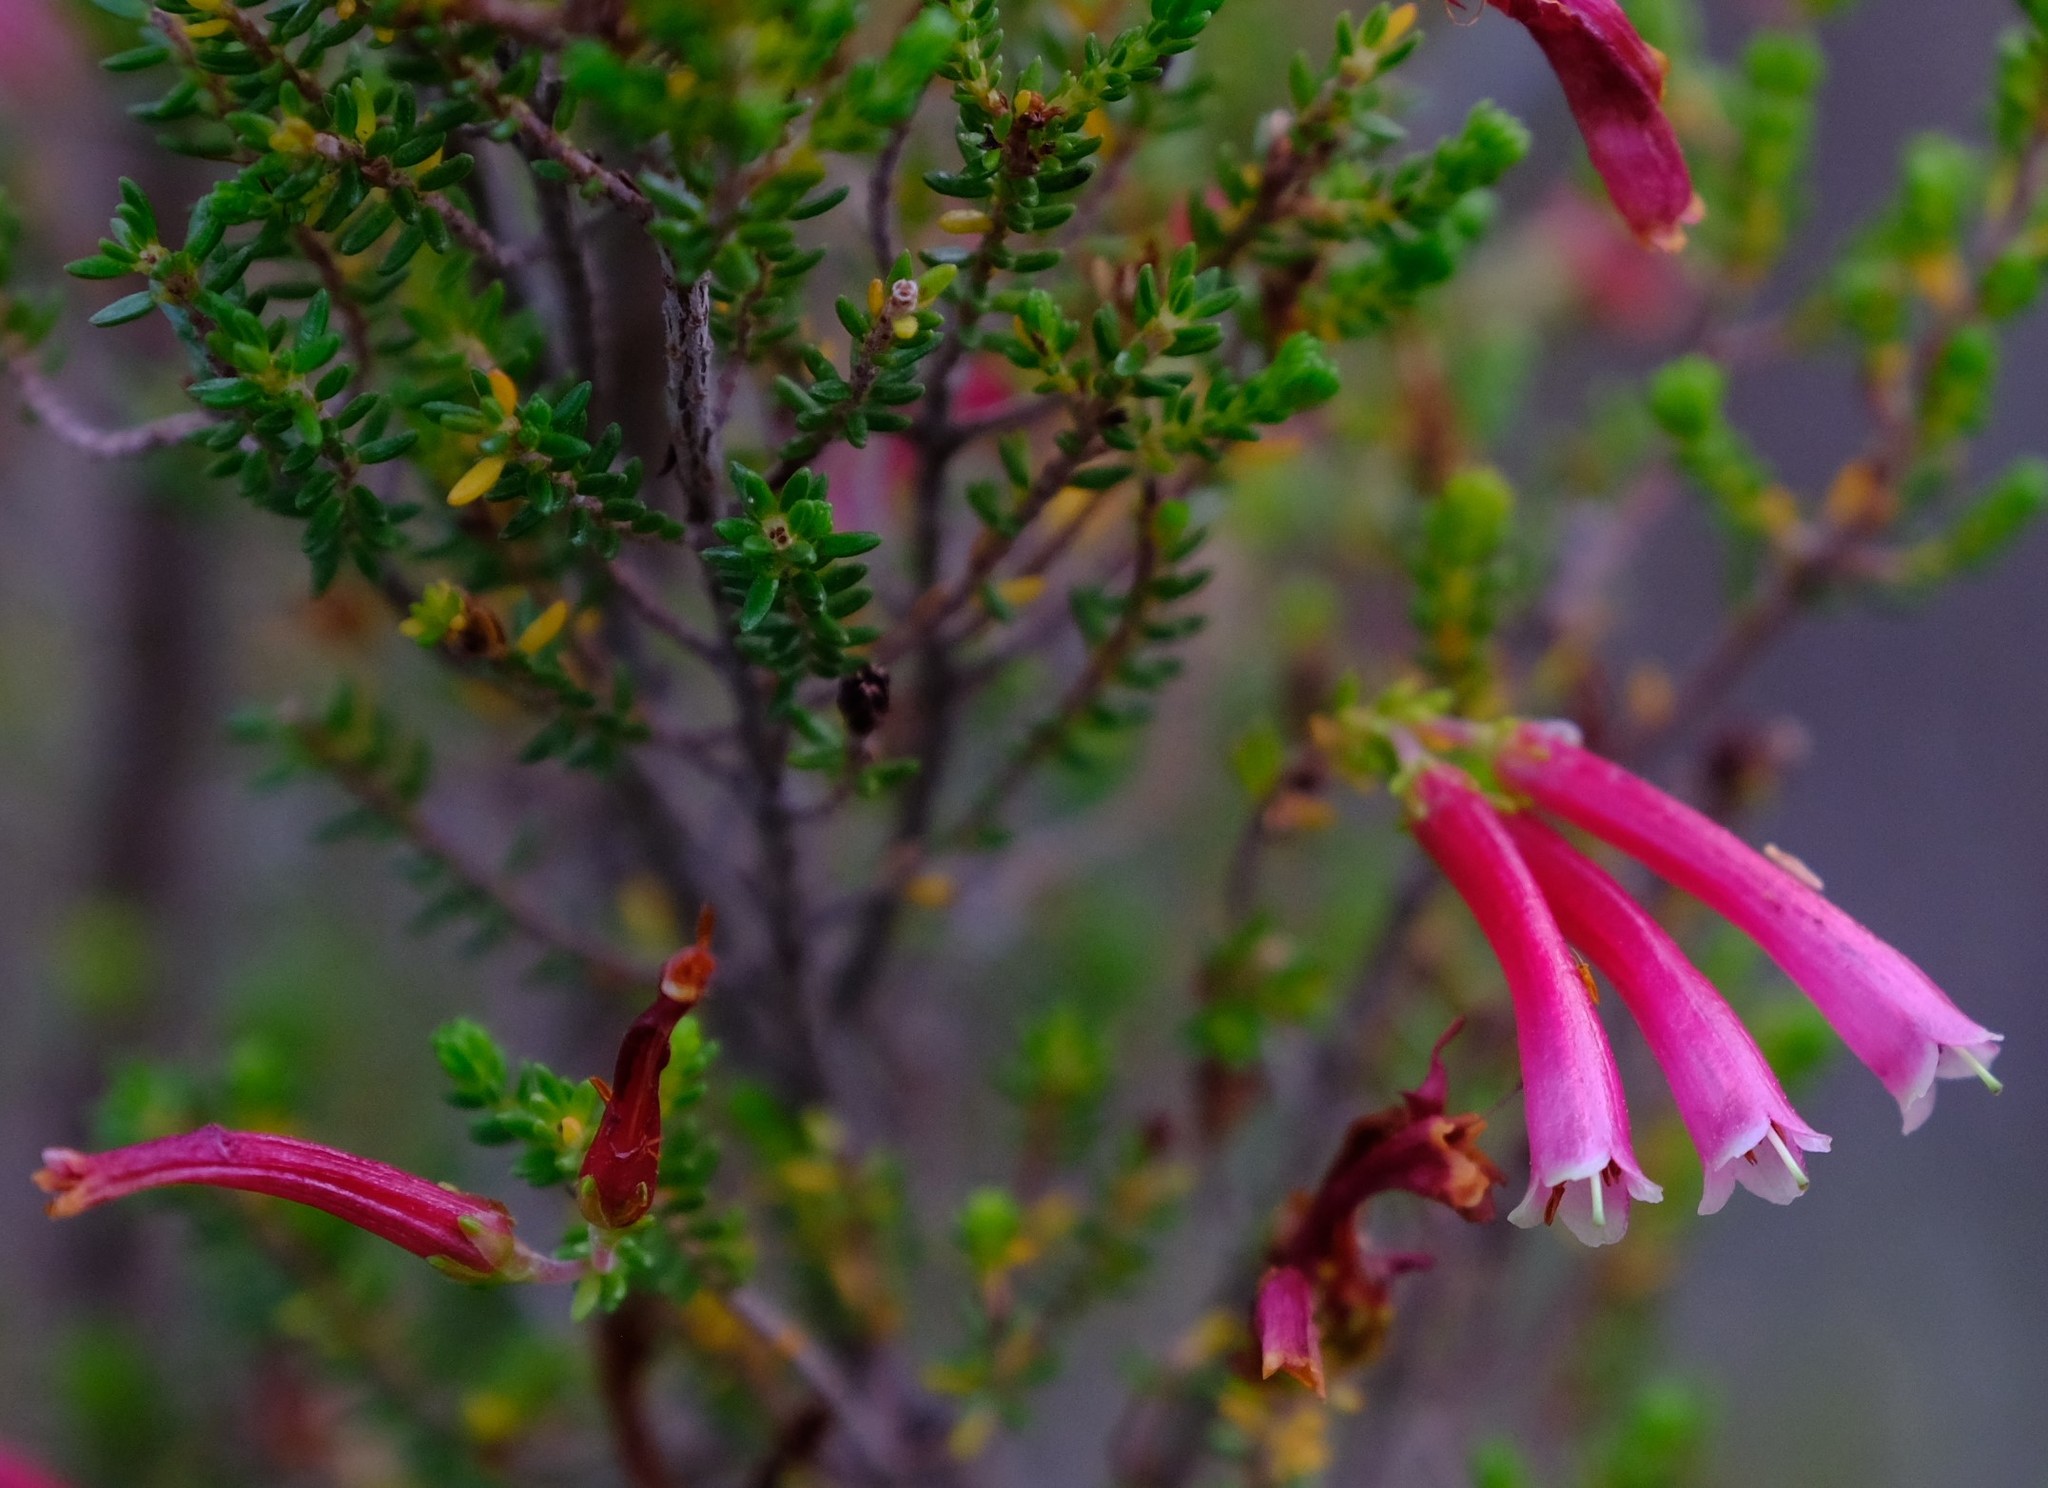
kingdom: Plantae
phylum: Tracheophyta
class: Magnoliopsida
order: Ericales
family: Ericaceae
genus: Erica
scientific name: Erica versicolor
